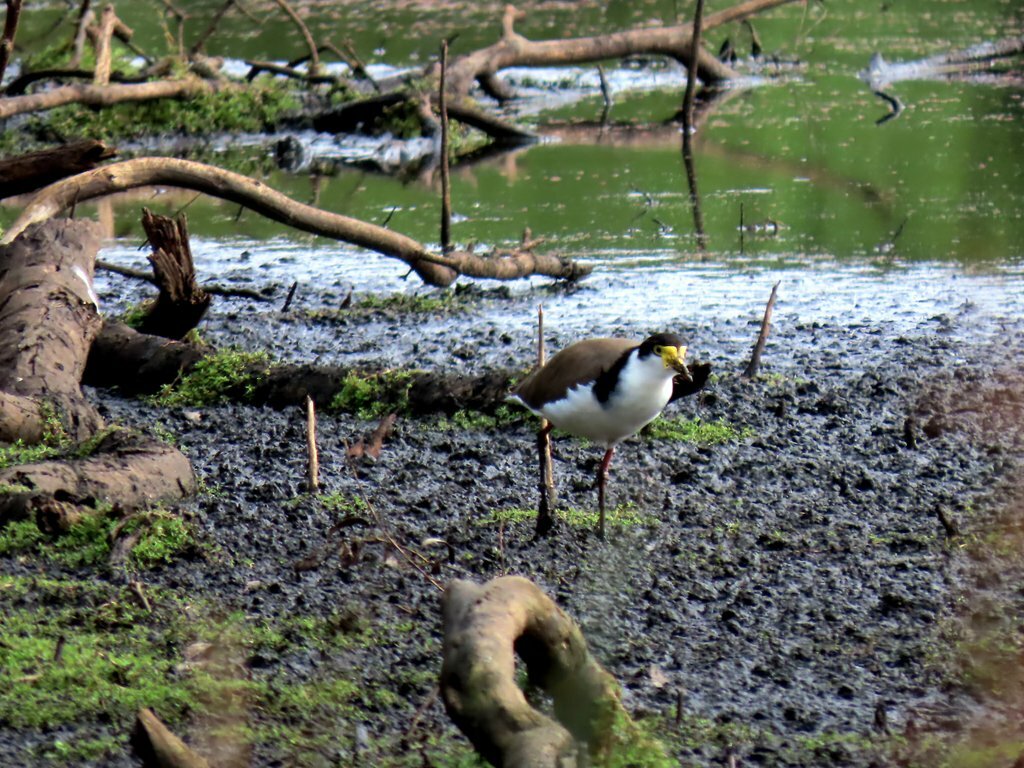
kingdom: Animalia
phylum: Chordata
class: Aves
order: Charadriiformes
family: Charadriidae
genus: Vanellus
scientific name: Vanellus miles
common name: Masked lapwing
